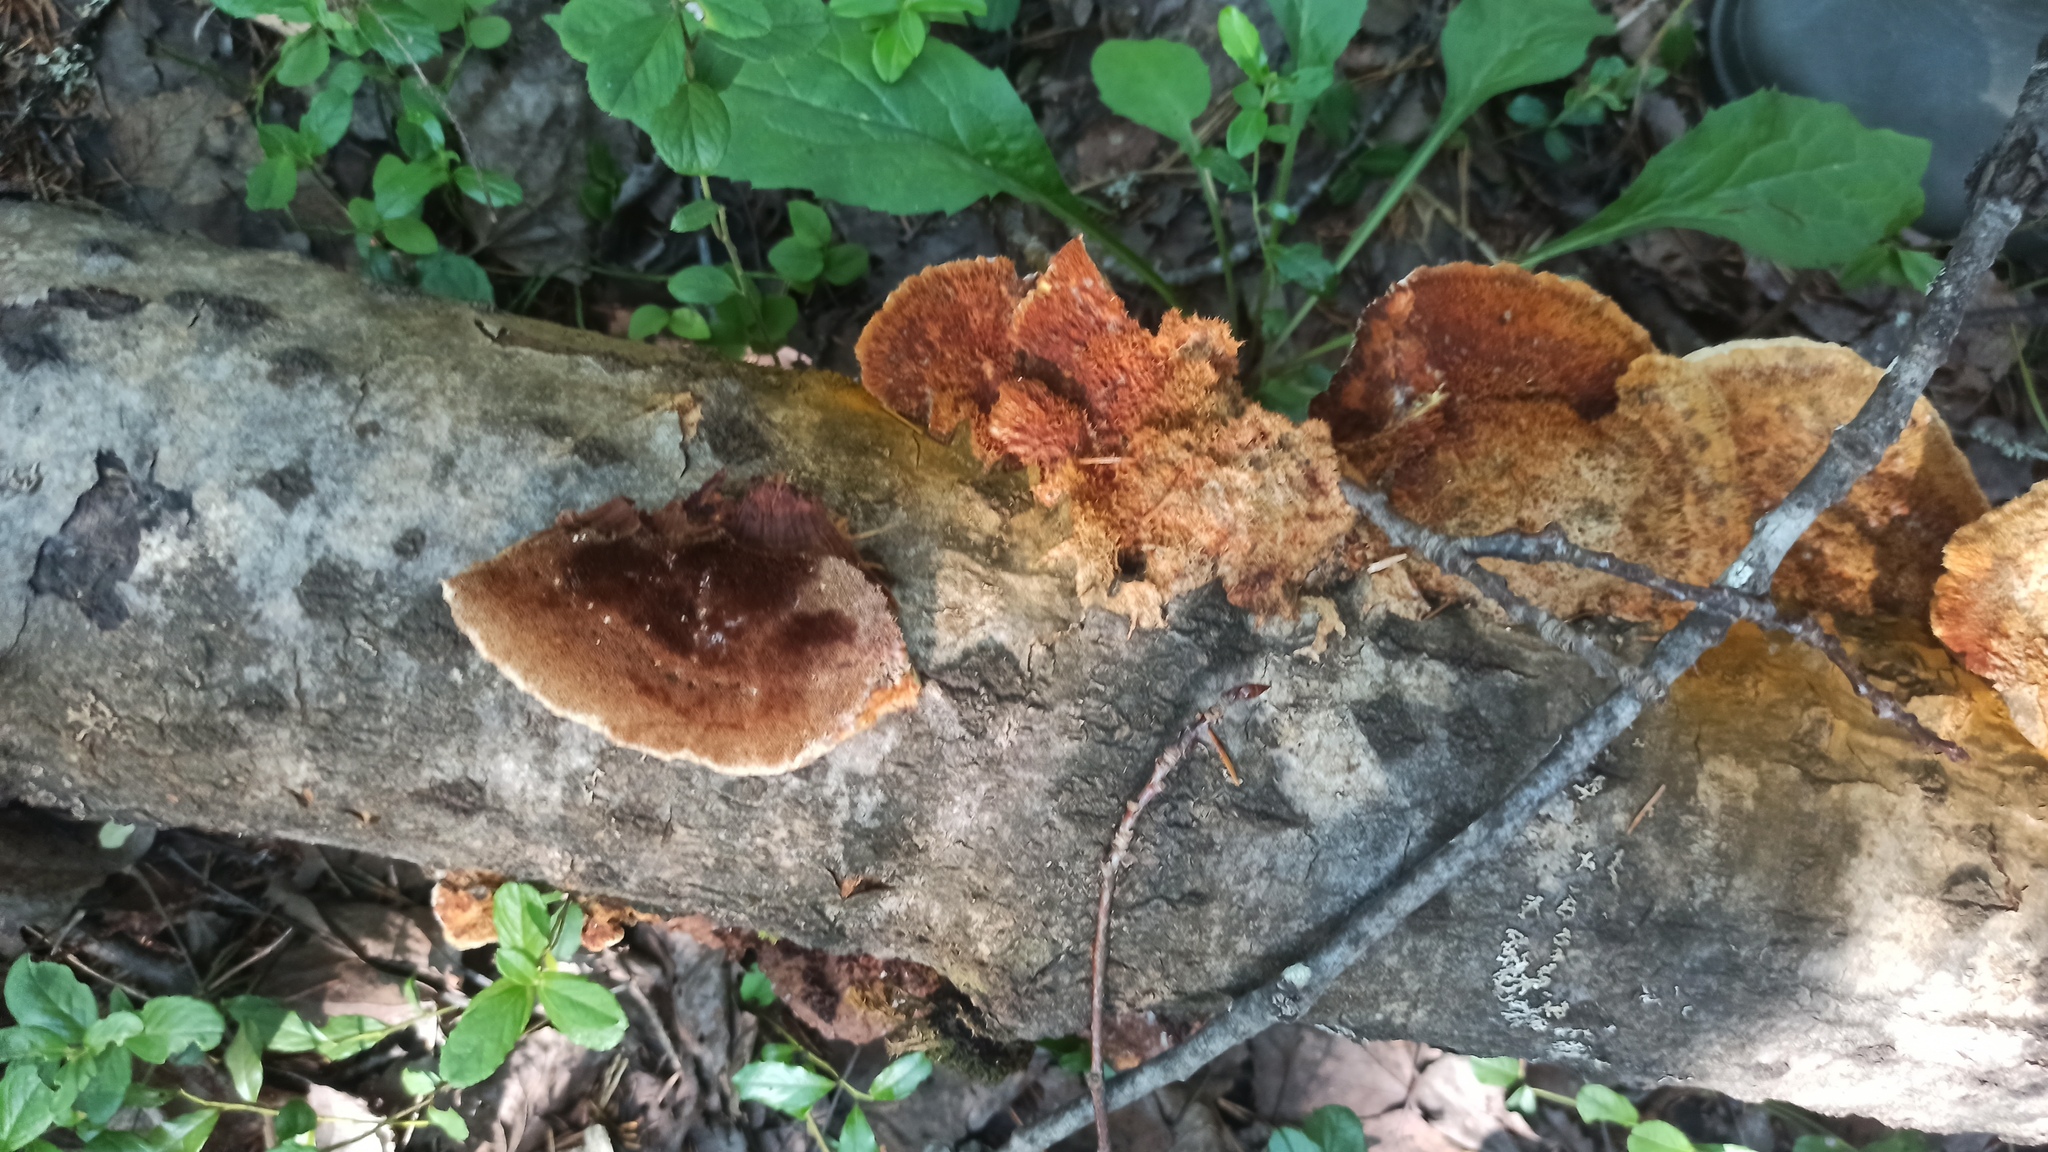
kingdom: Fungi
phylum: Basidiomycota
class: Agaricomycetes
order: Hymenochaetales
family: Hymenochaetaceae
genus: Inocutis
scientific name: Inocutis rheades
